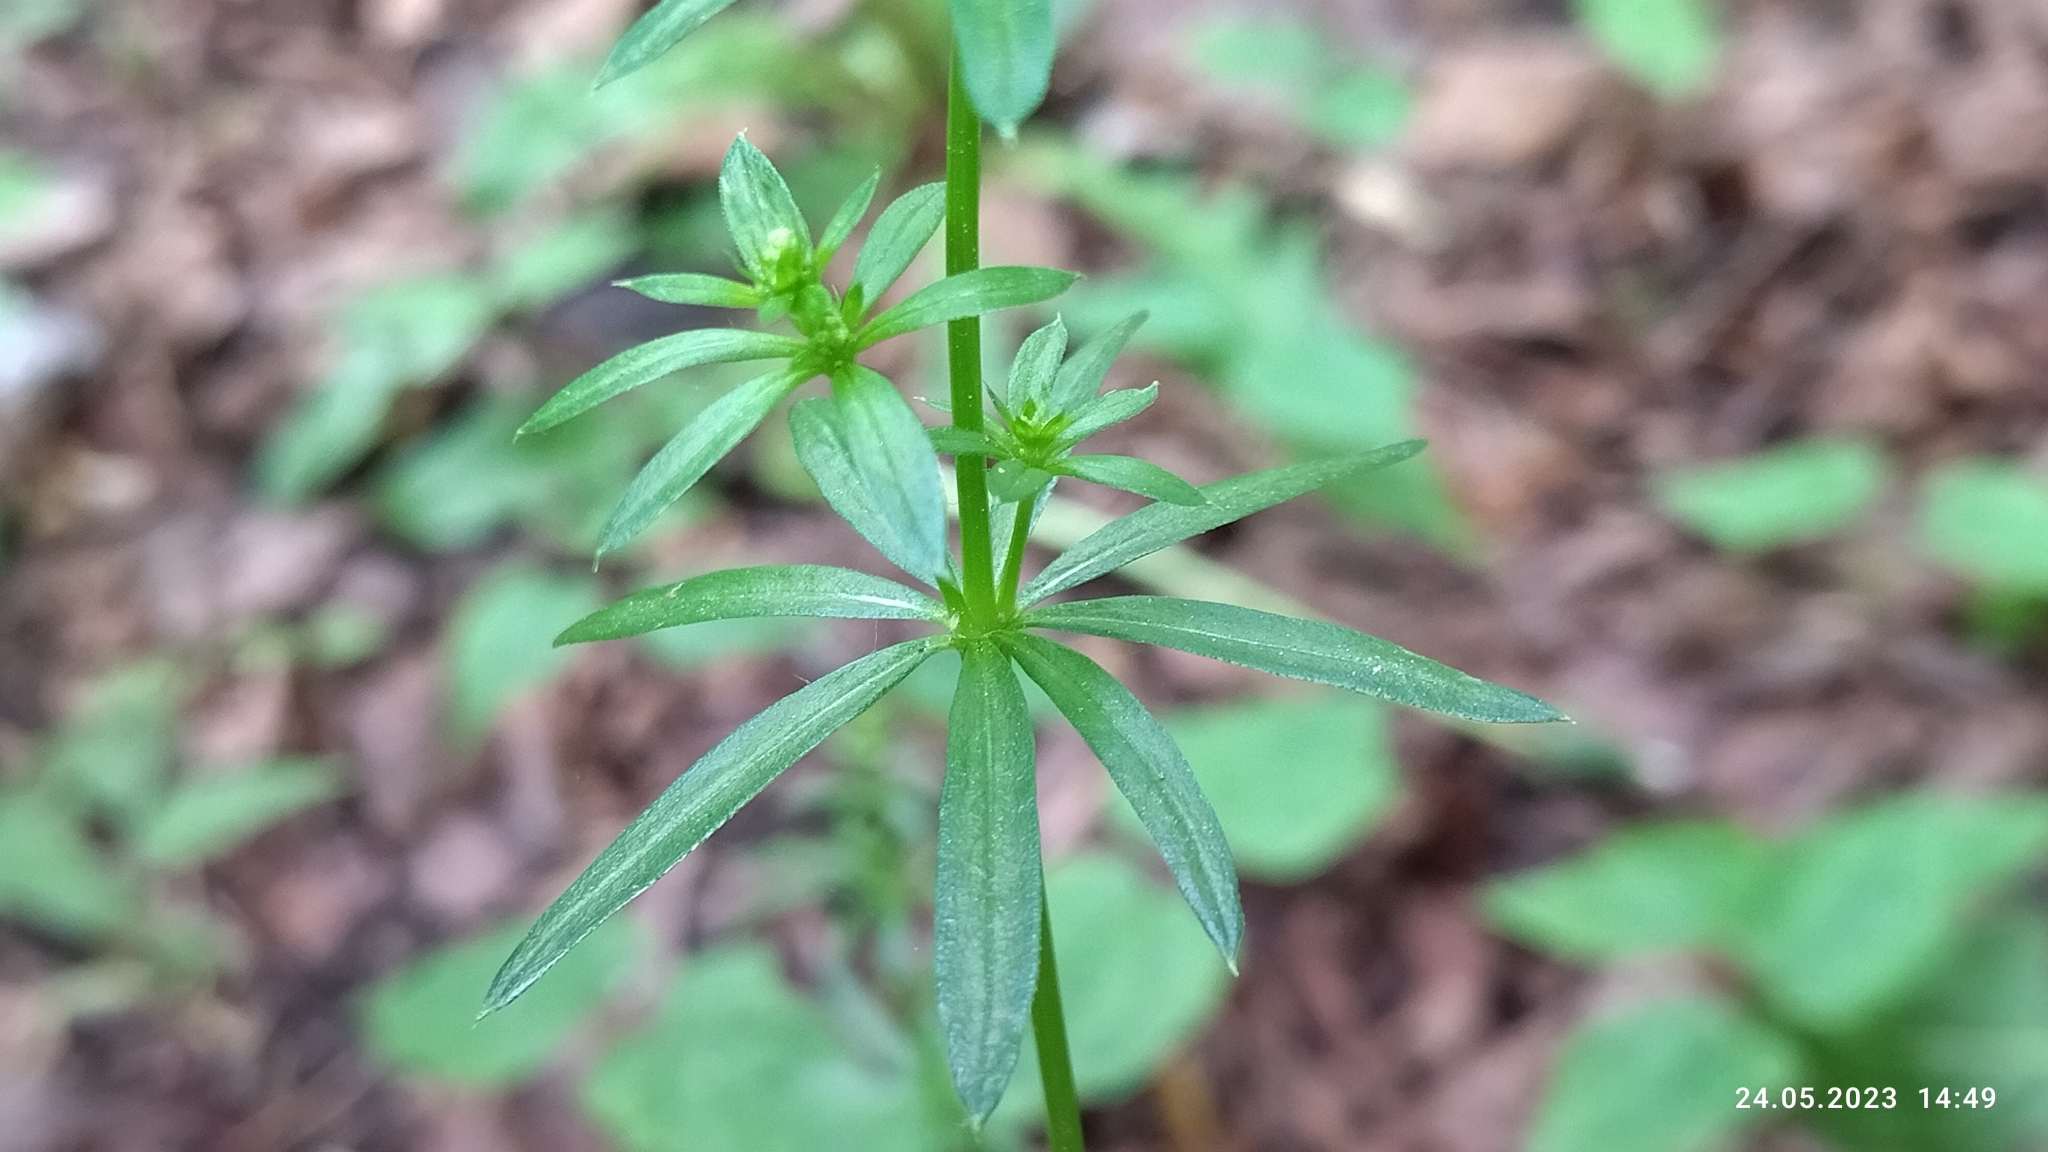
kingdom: Plantae
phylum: Tracheophyta
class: Magnoliopsida
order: Gentianales
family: Rubiaceae
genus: Galium
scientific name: Galium mollugo
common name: Hedge bedstraw
